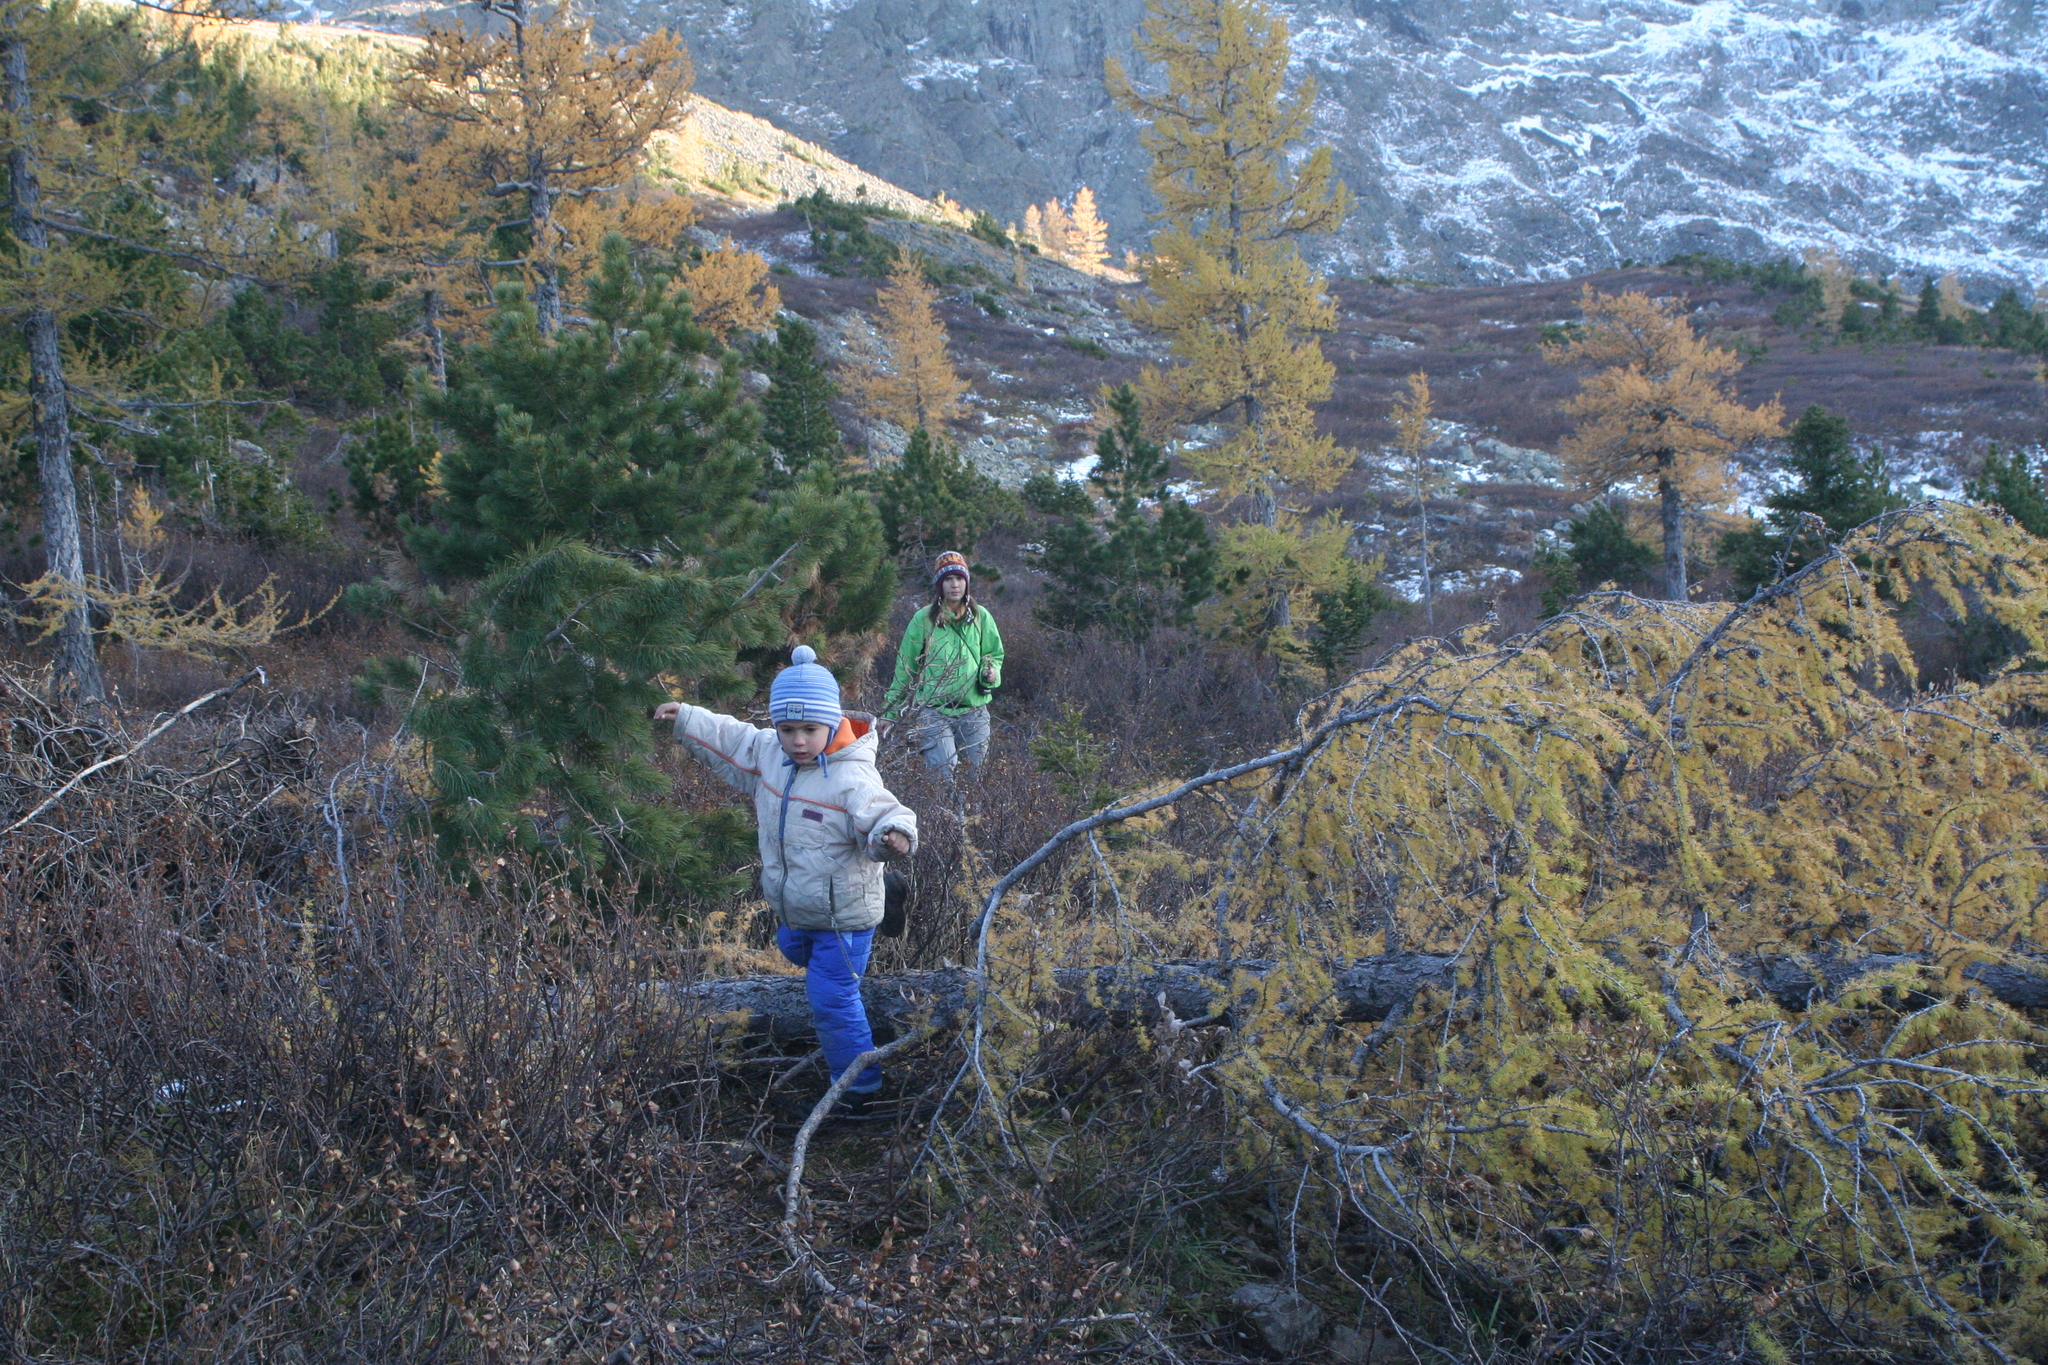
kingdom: Plantae
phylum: Tracheophyta
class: Pinopsida
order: Pinales
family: Pinaceae
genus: Larix
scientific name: Larix sibirica
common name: Siberian larch
